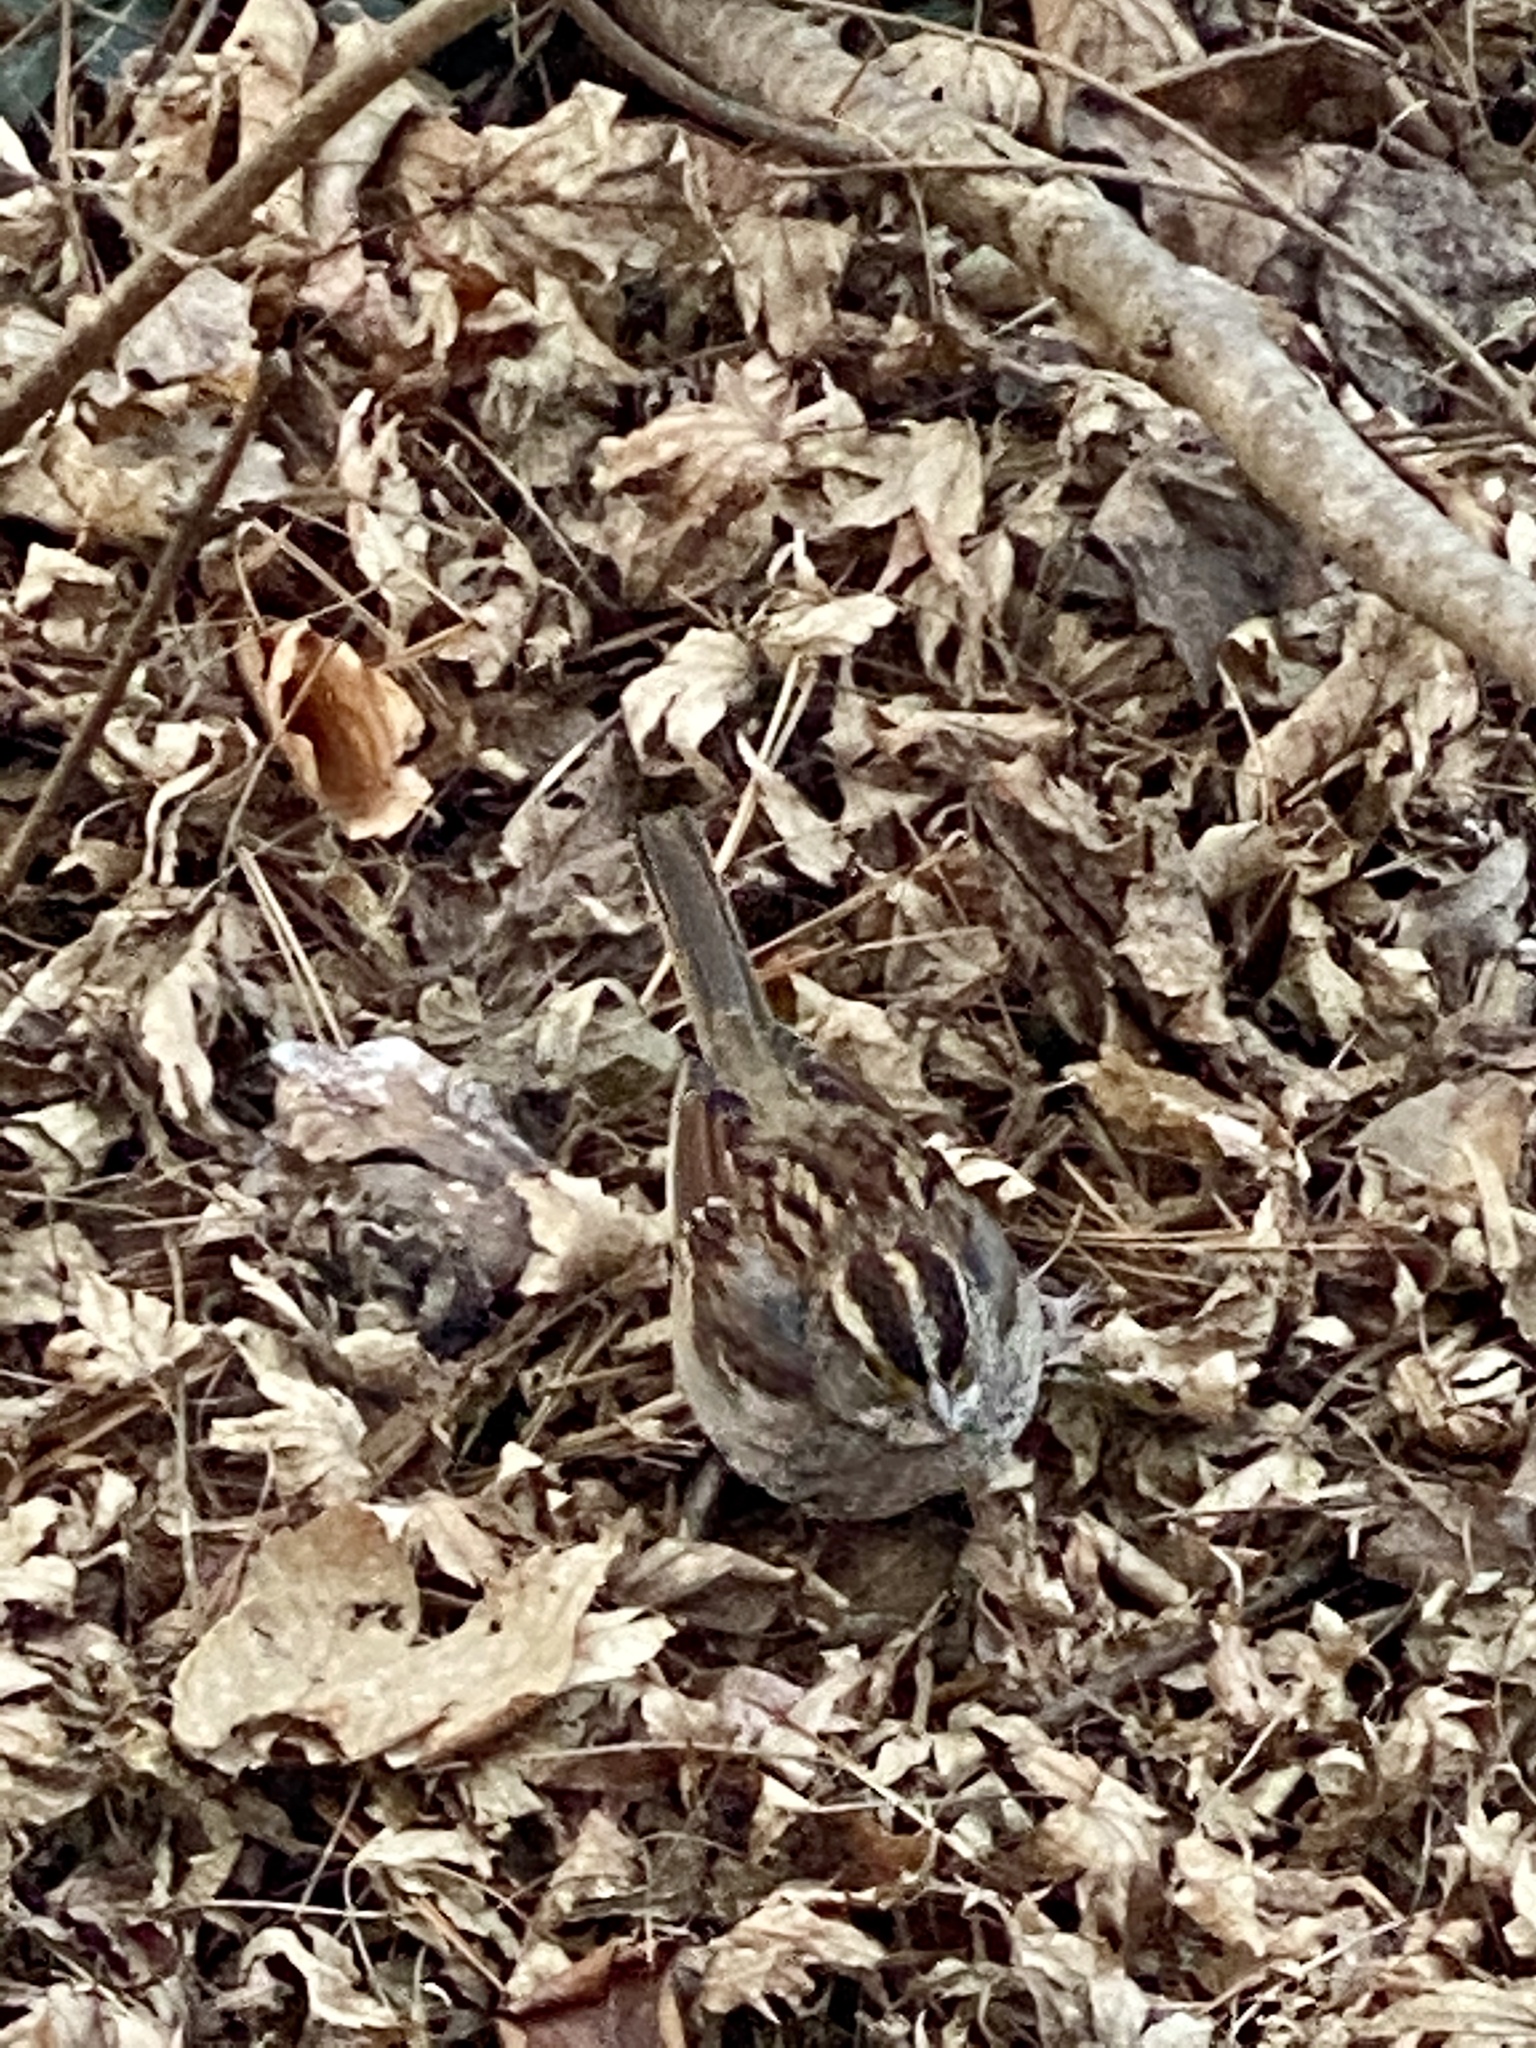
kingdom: Animalia
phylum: Chordata
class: Aves
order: Passeriformes
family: Passerellidae
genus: Zonotrichia
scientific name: Zonotrichia albicollis
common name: White-throated sparrow
